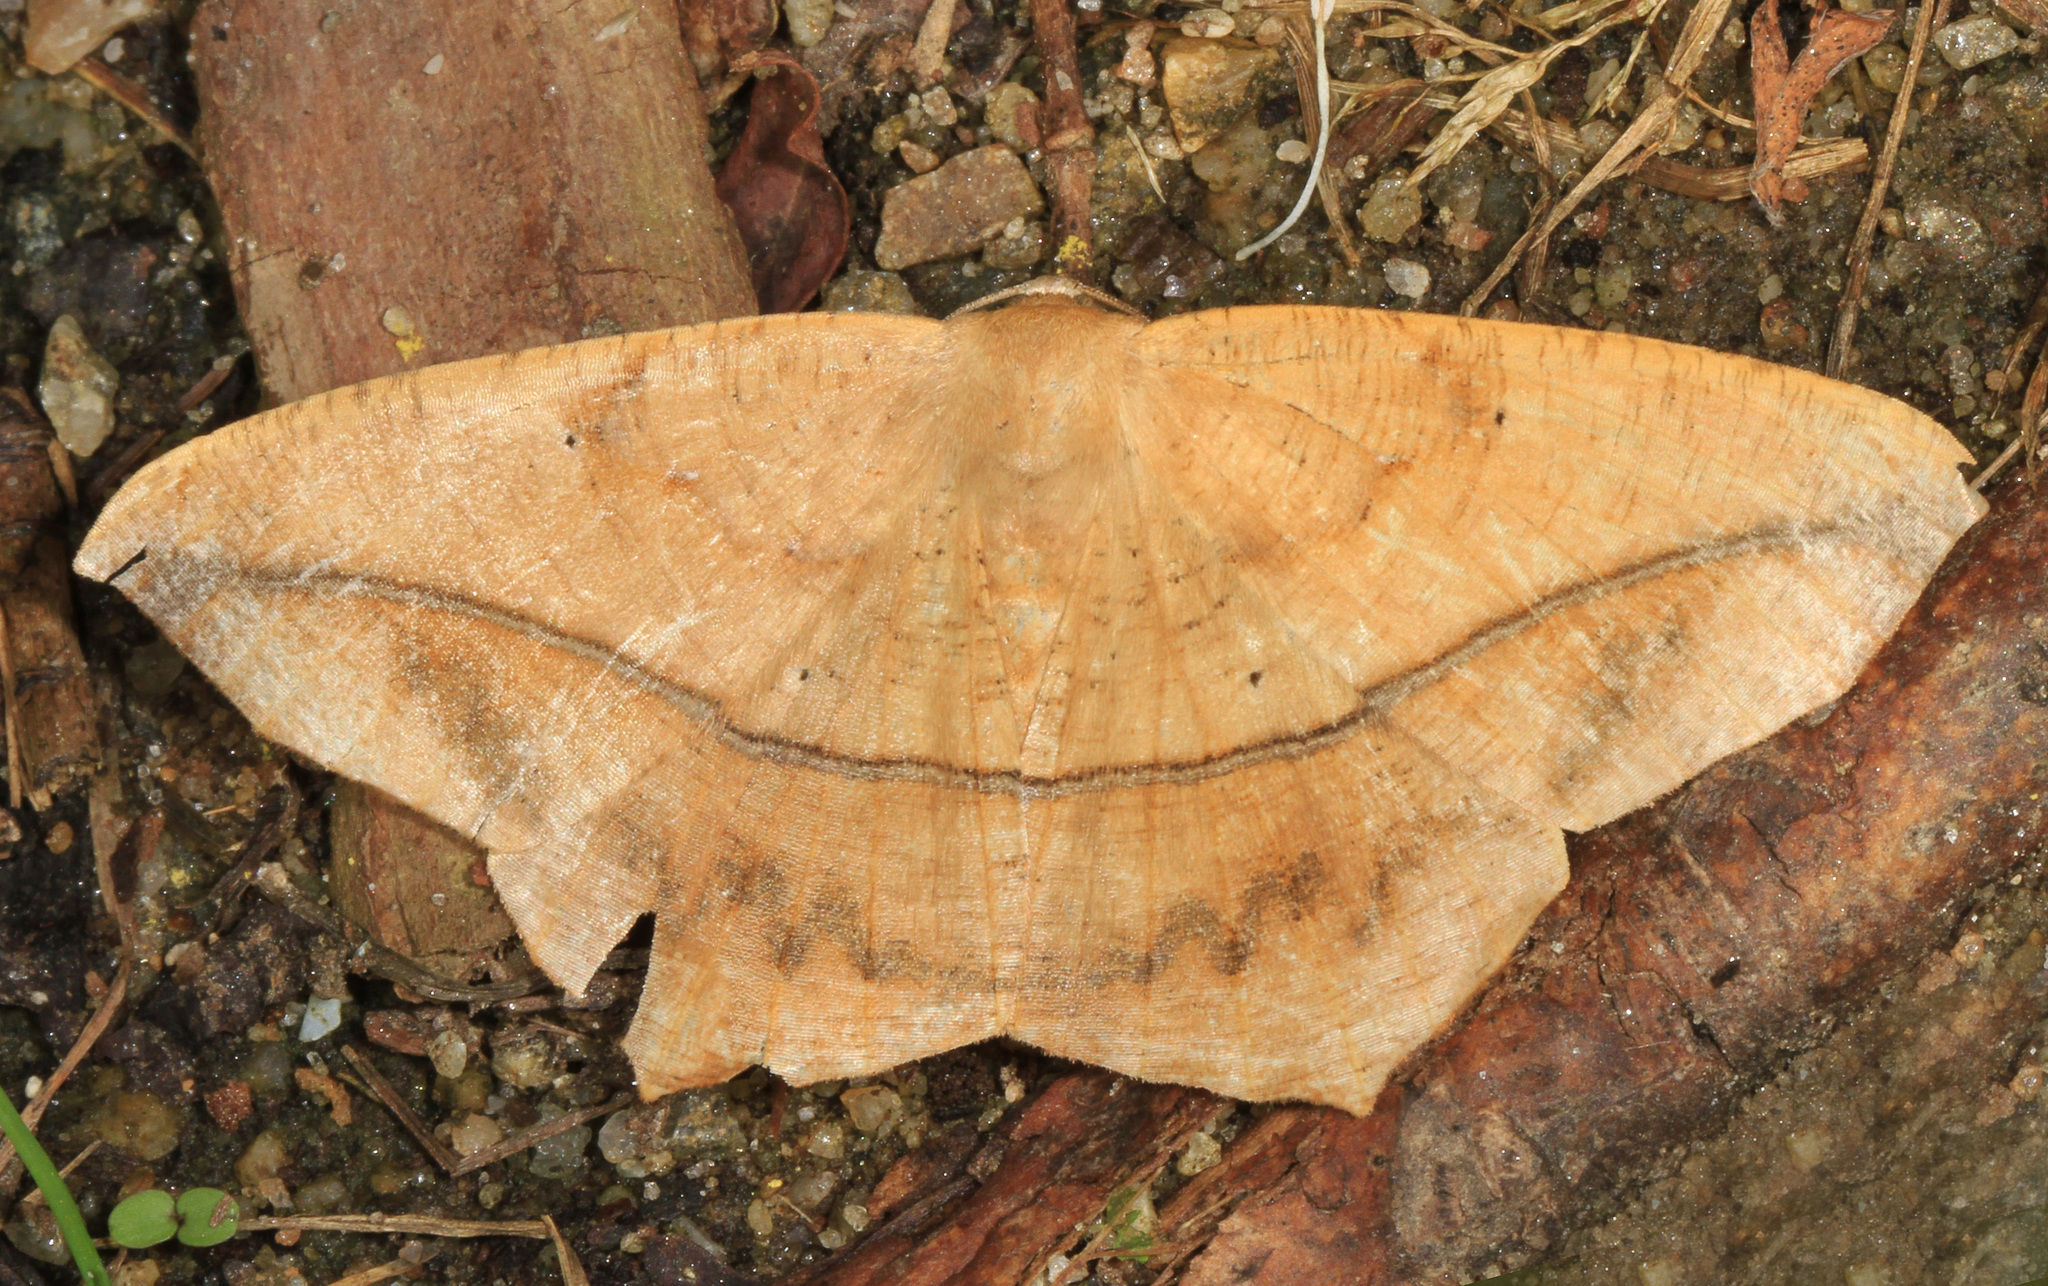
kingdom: Animalia
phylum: Arthropoda
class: Insecta
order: Lepidoptera
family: Geometridae
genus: Prochoerodes
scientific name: Prochoerodes lineola
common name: Large maple spanworm
